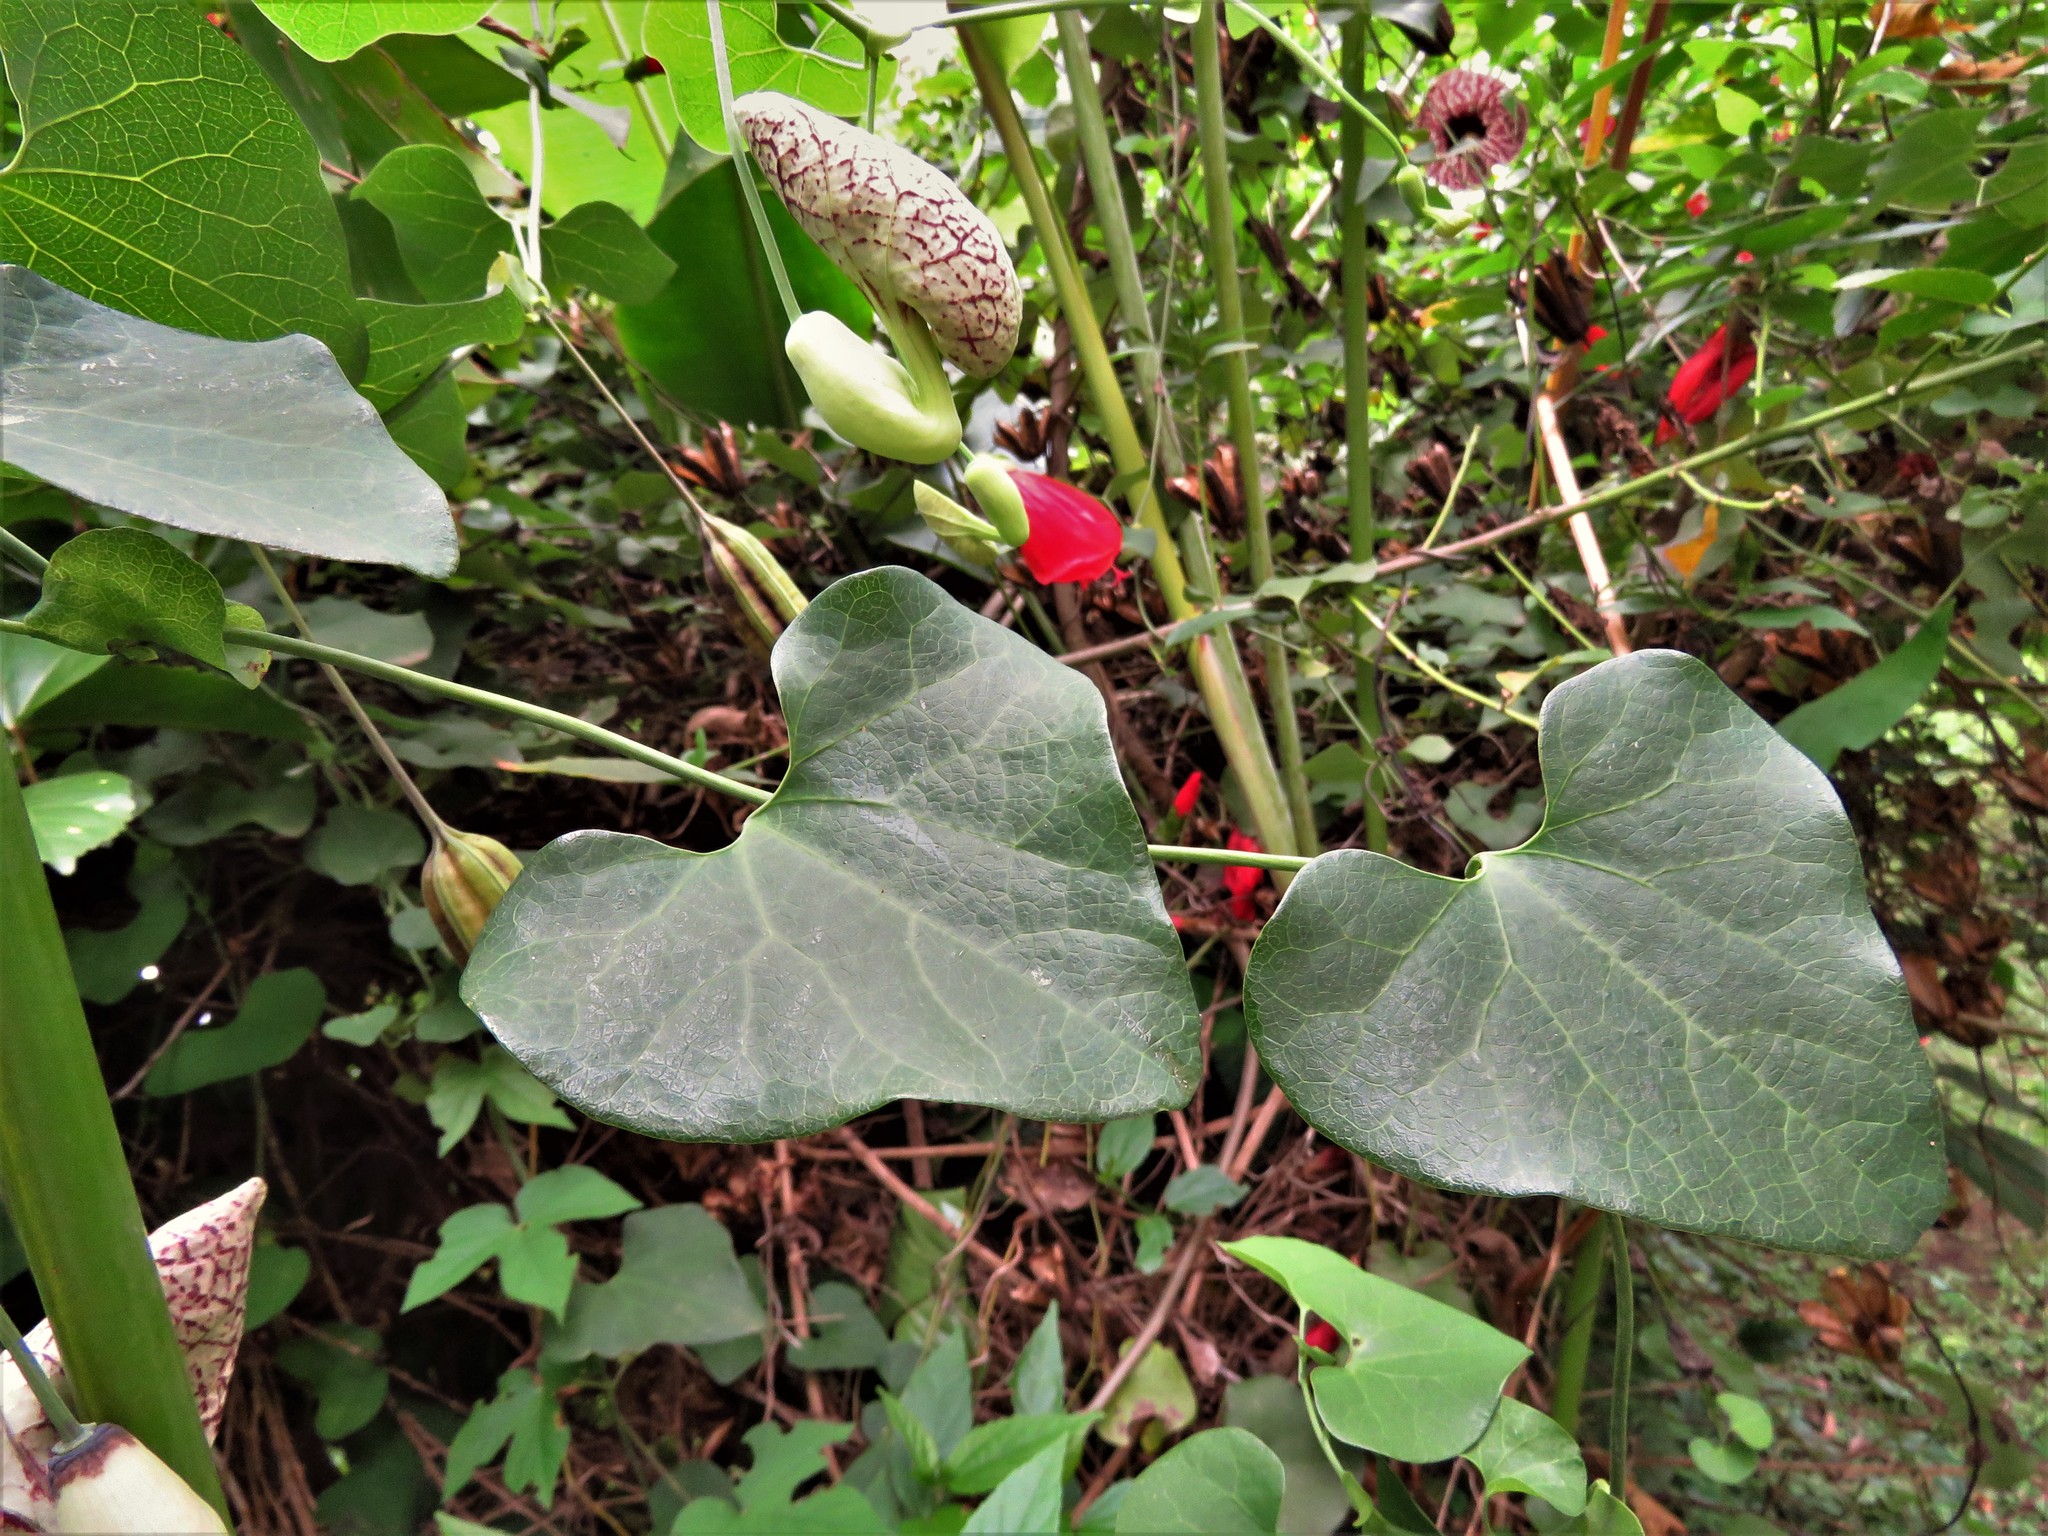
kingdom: Plantae
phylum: Tracheophyta
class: Magnoliopsida
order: Piperales
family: Aristolochiaceae
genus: Aristolochia
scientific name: Aristolochia littoralis
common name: Duck
